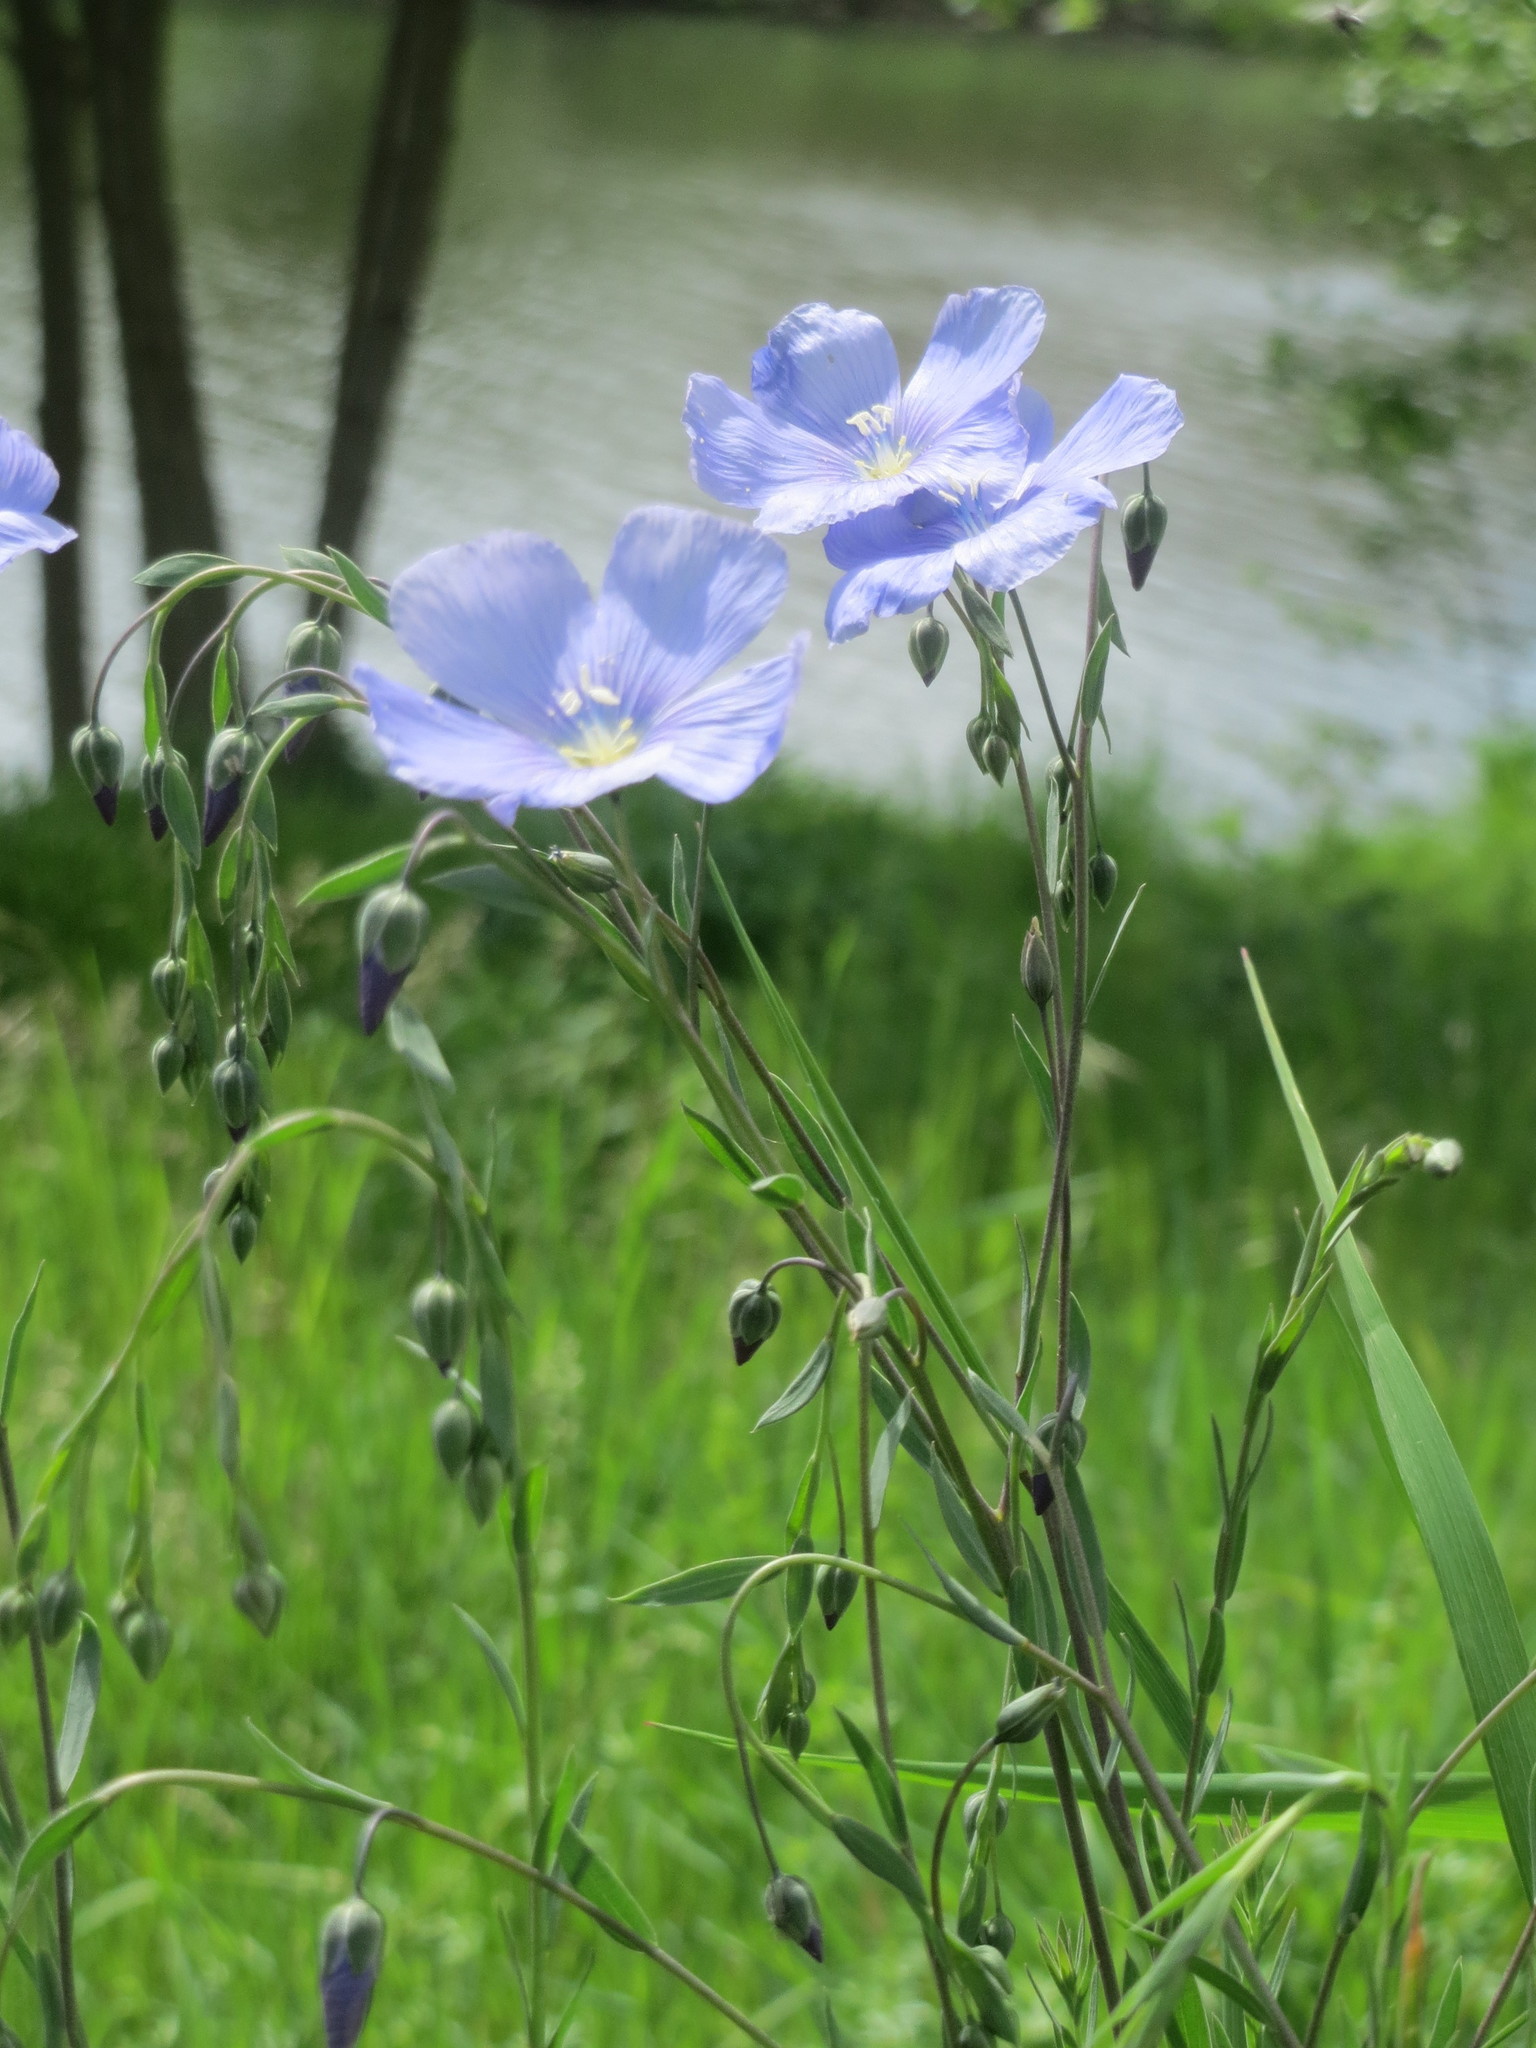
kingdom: Plantae
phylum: Tracheophyta
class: Magnoliopsida
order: Malpighiales
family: Linaceae
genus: Linum
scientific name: Linum usitatissimum
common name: Flax
